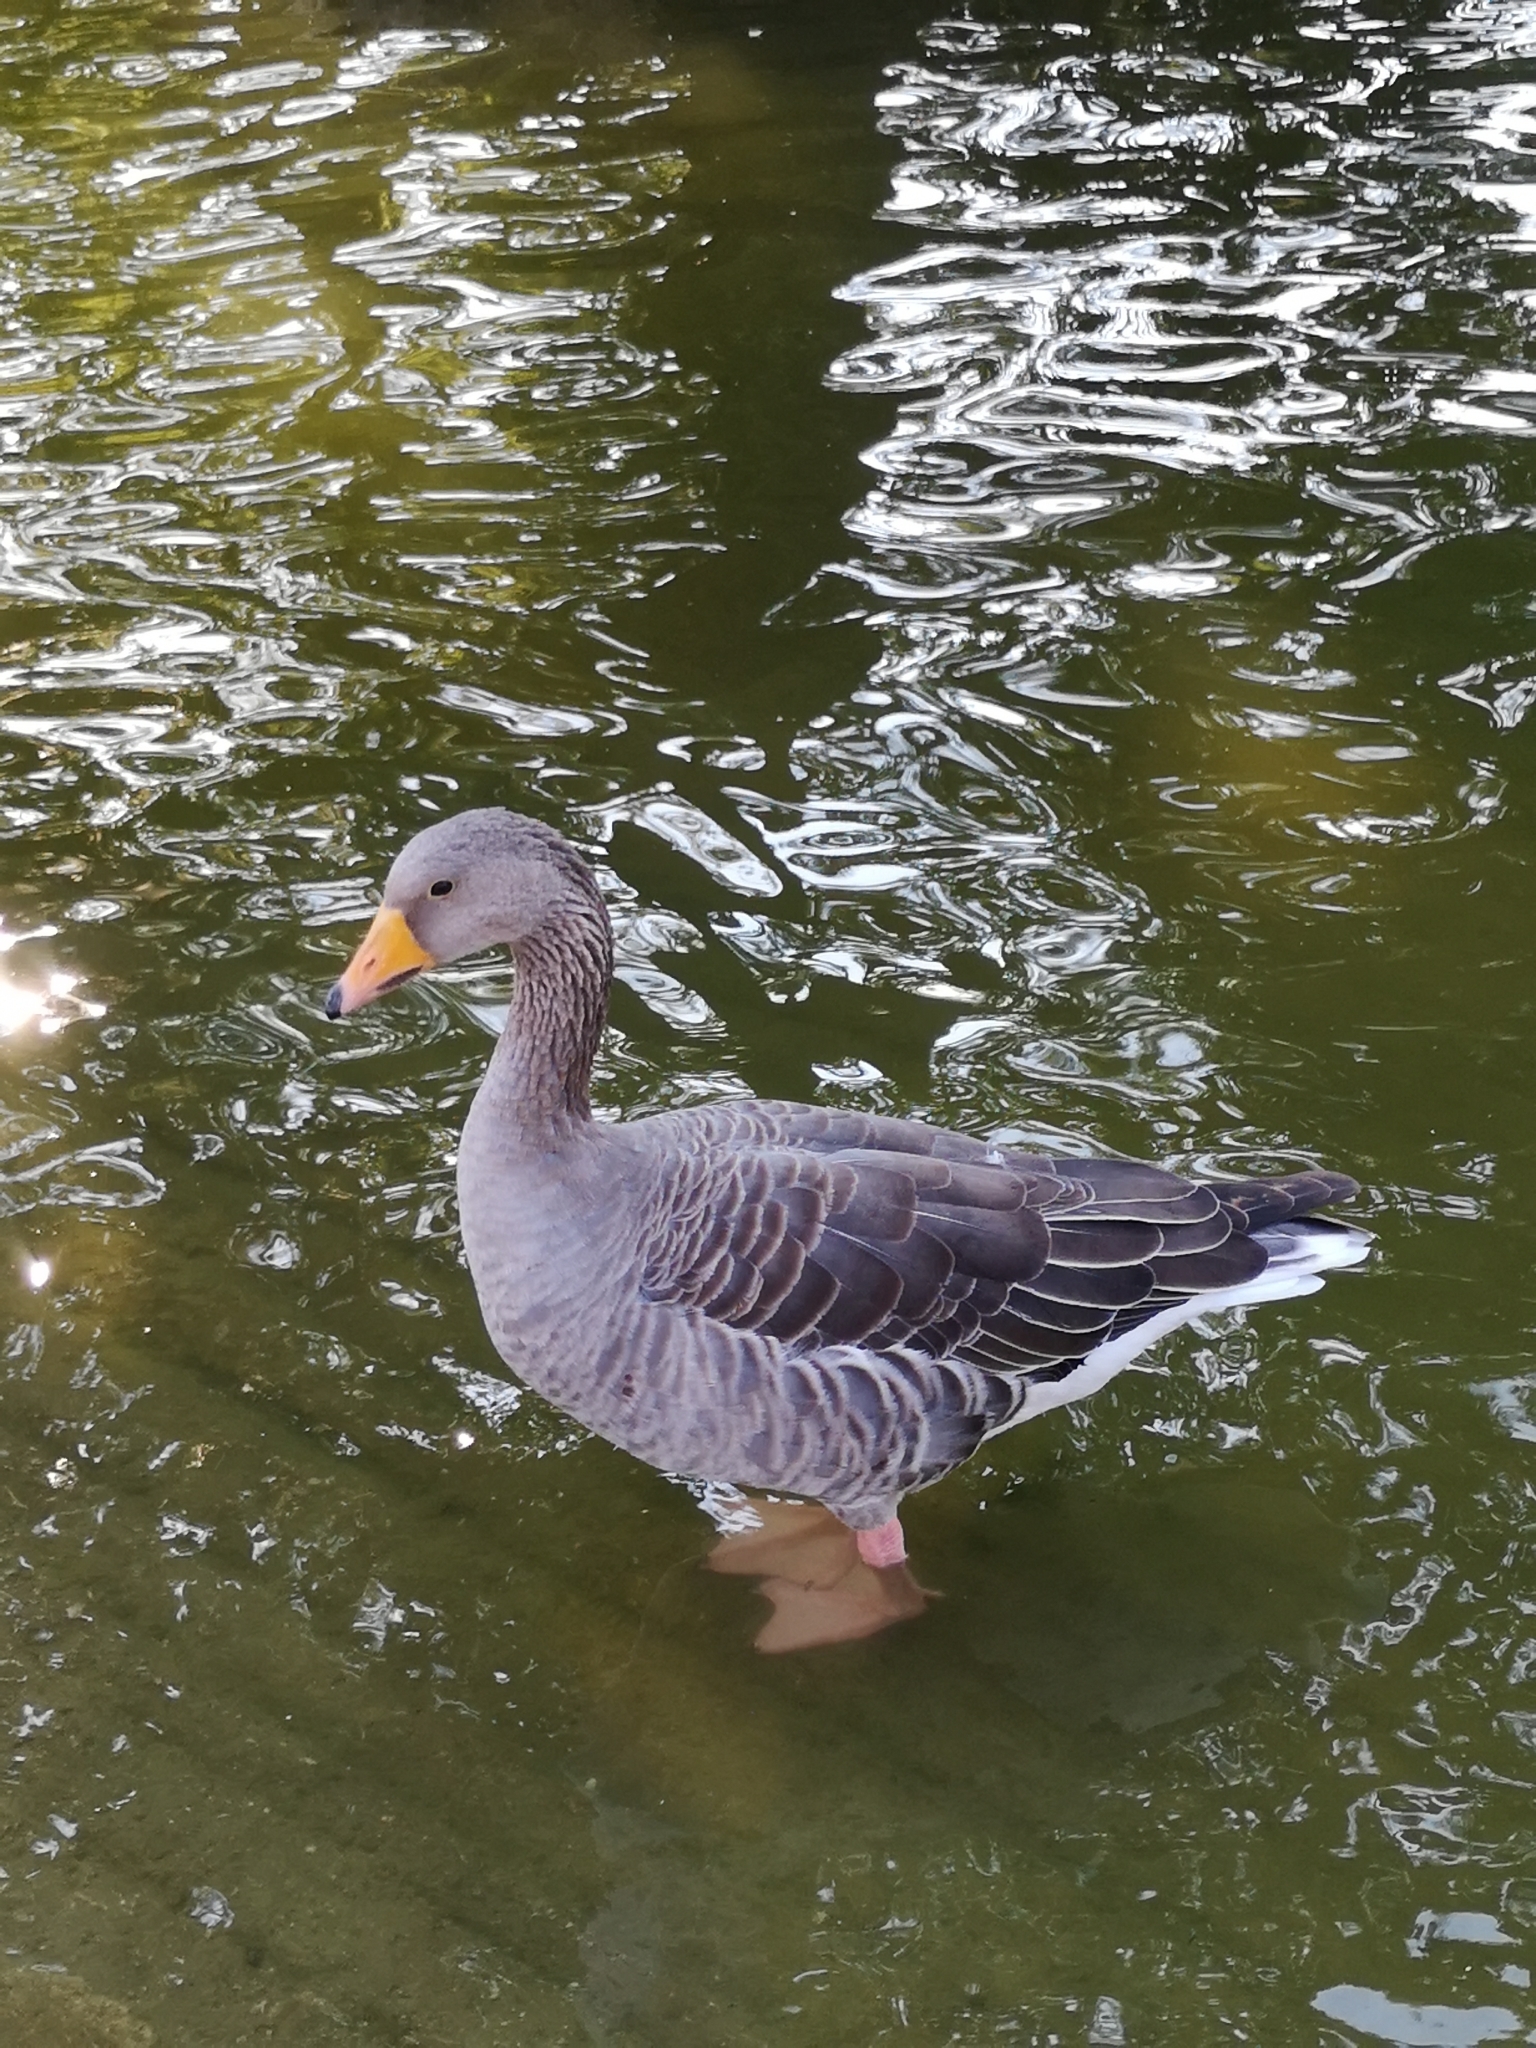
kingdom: Animalia
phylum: Chordata
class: Aves
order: Anseriformes
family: Anatidae
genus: Anser
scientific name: Anser anser
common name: Greylag goose
